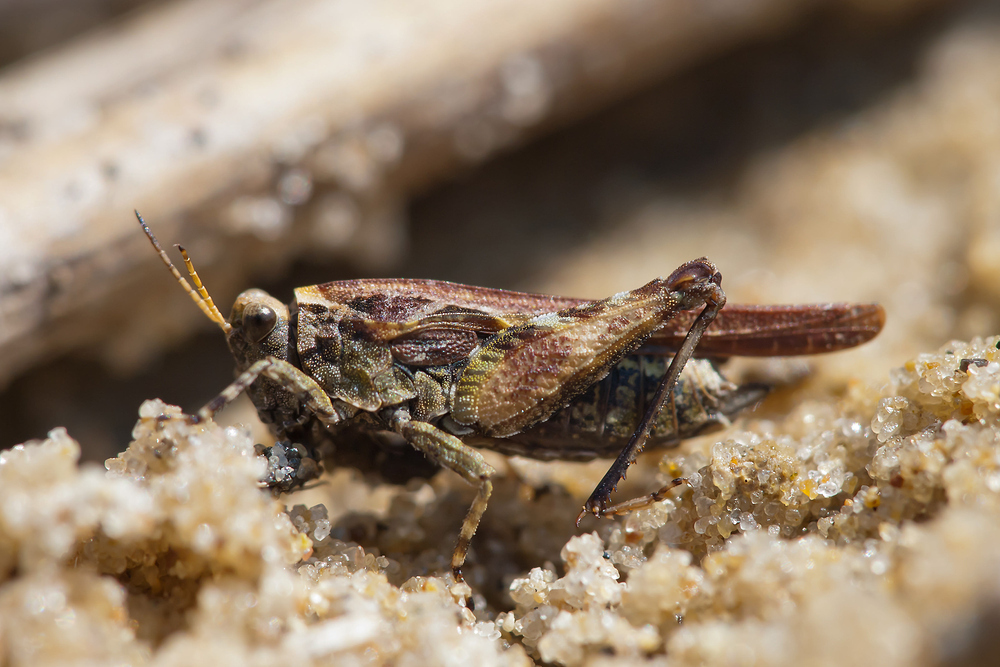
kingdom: Animalia
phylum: Arthropoda
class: Insecta
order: Orthoptera
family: Tetrigidae
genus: Tetrix
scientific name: Tetrix ceperoi
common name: Cepero's ground-hopper
